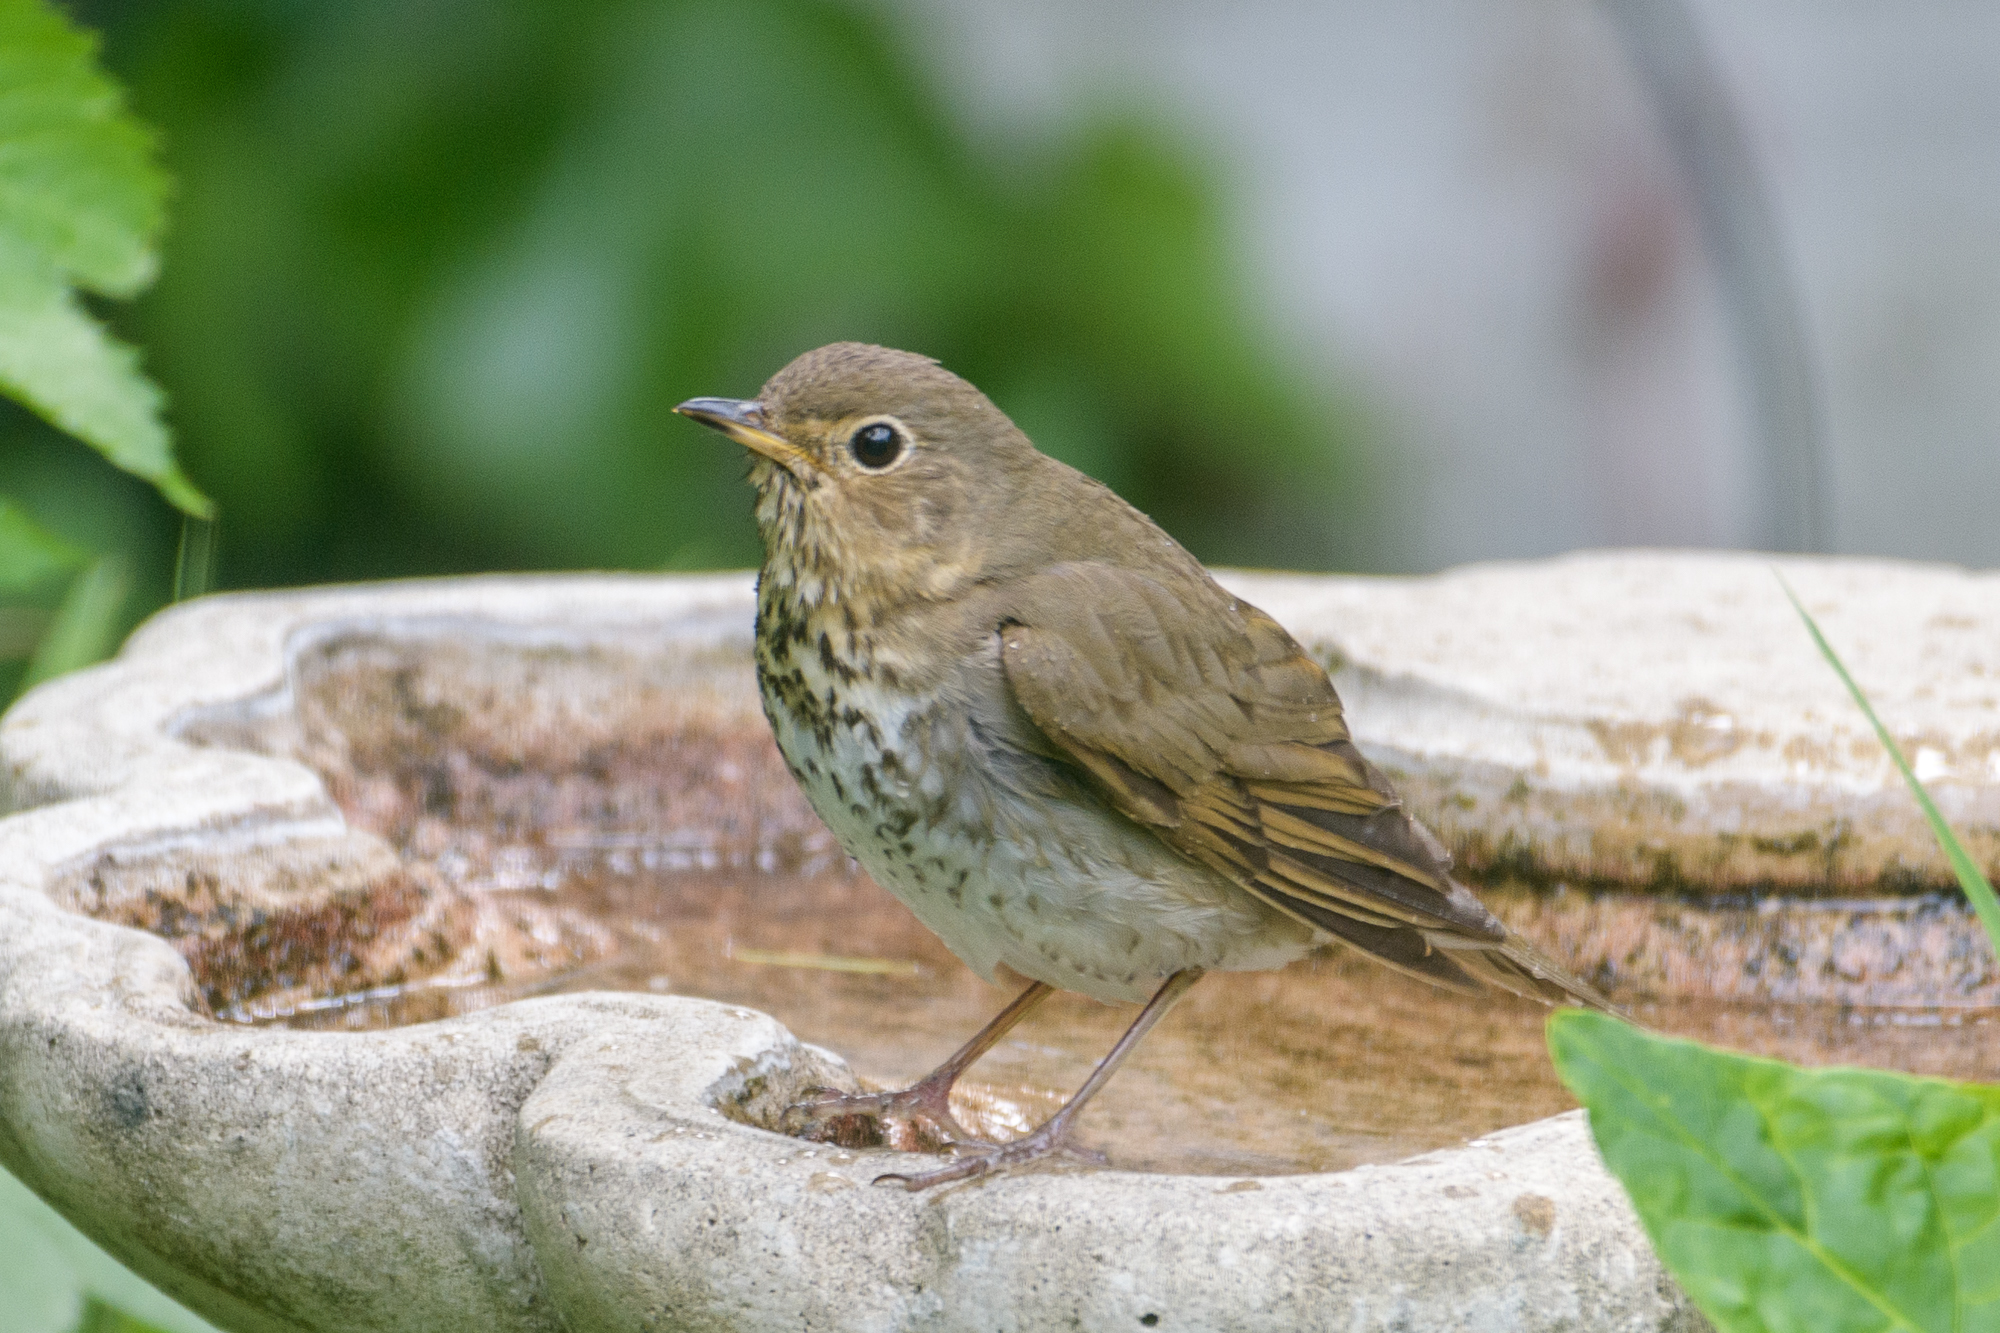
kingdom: Animalia
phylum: Chordata
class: Aves
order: Passeriformes
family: Turdidae
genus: Catharus
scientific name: Catharus ustulatus
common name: Swainson's thrush
